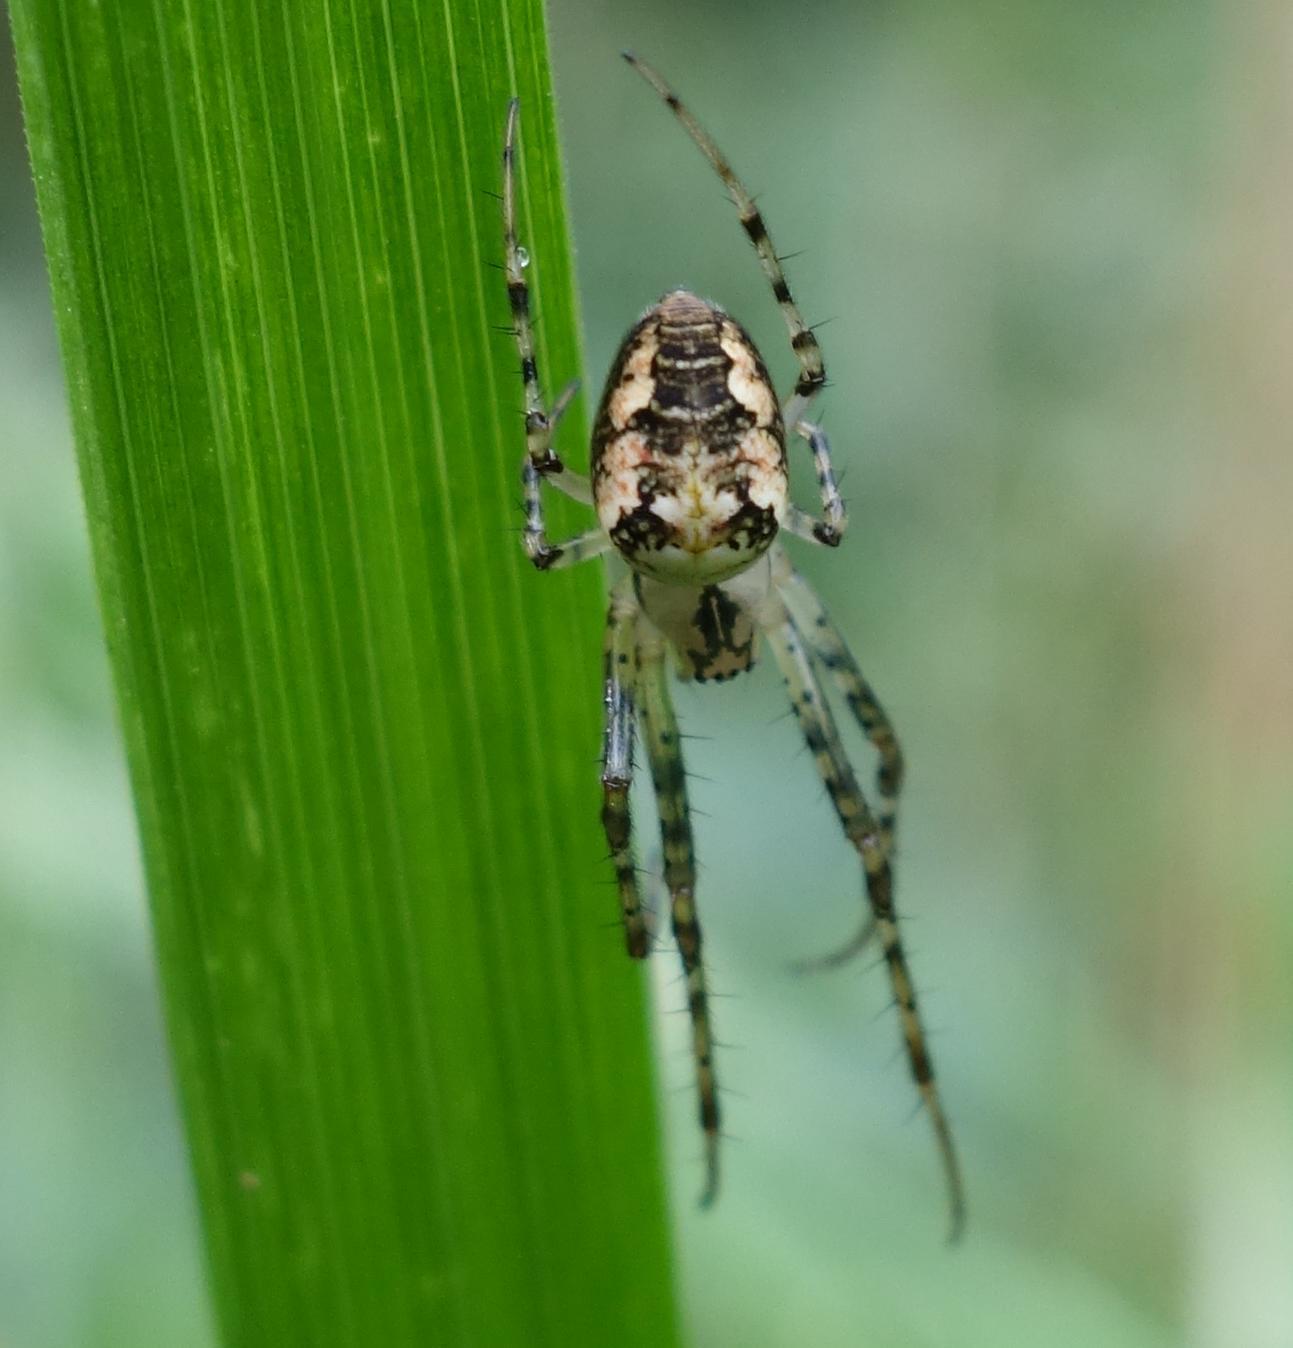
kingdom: Animalia
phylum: Arthropoda
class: Arachnida
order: Araneae
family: Tetragnathidae
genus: Metellina
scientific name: Metellina
